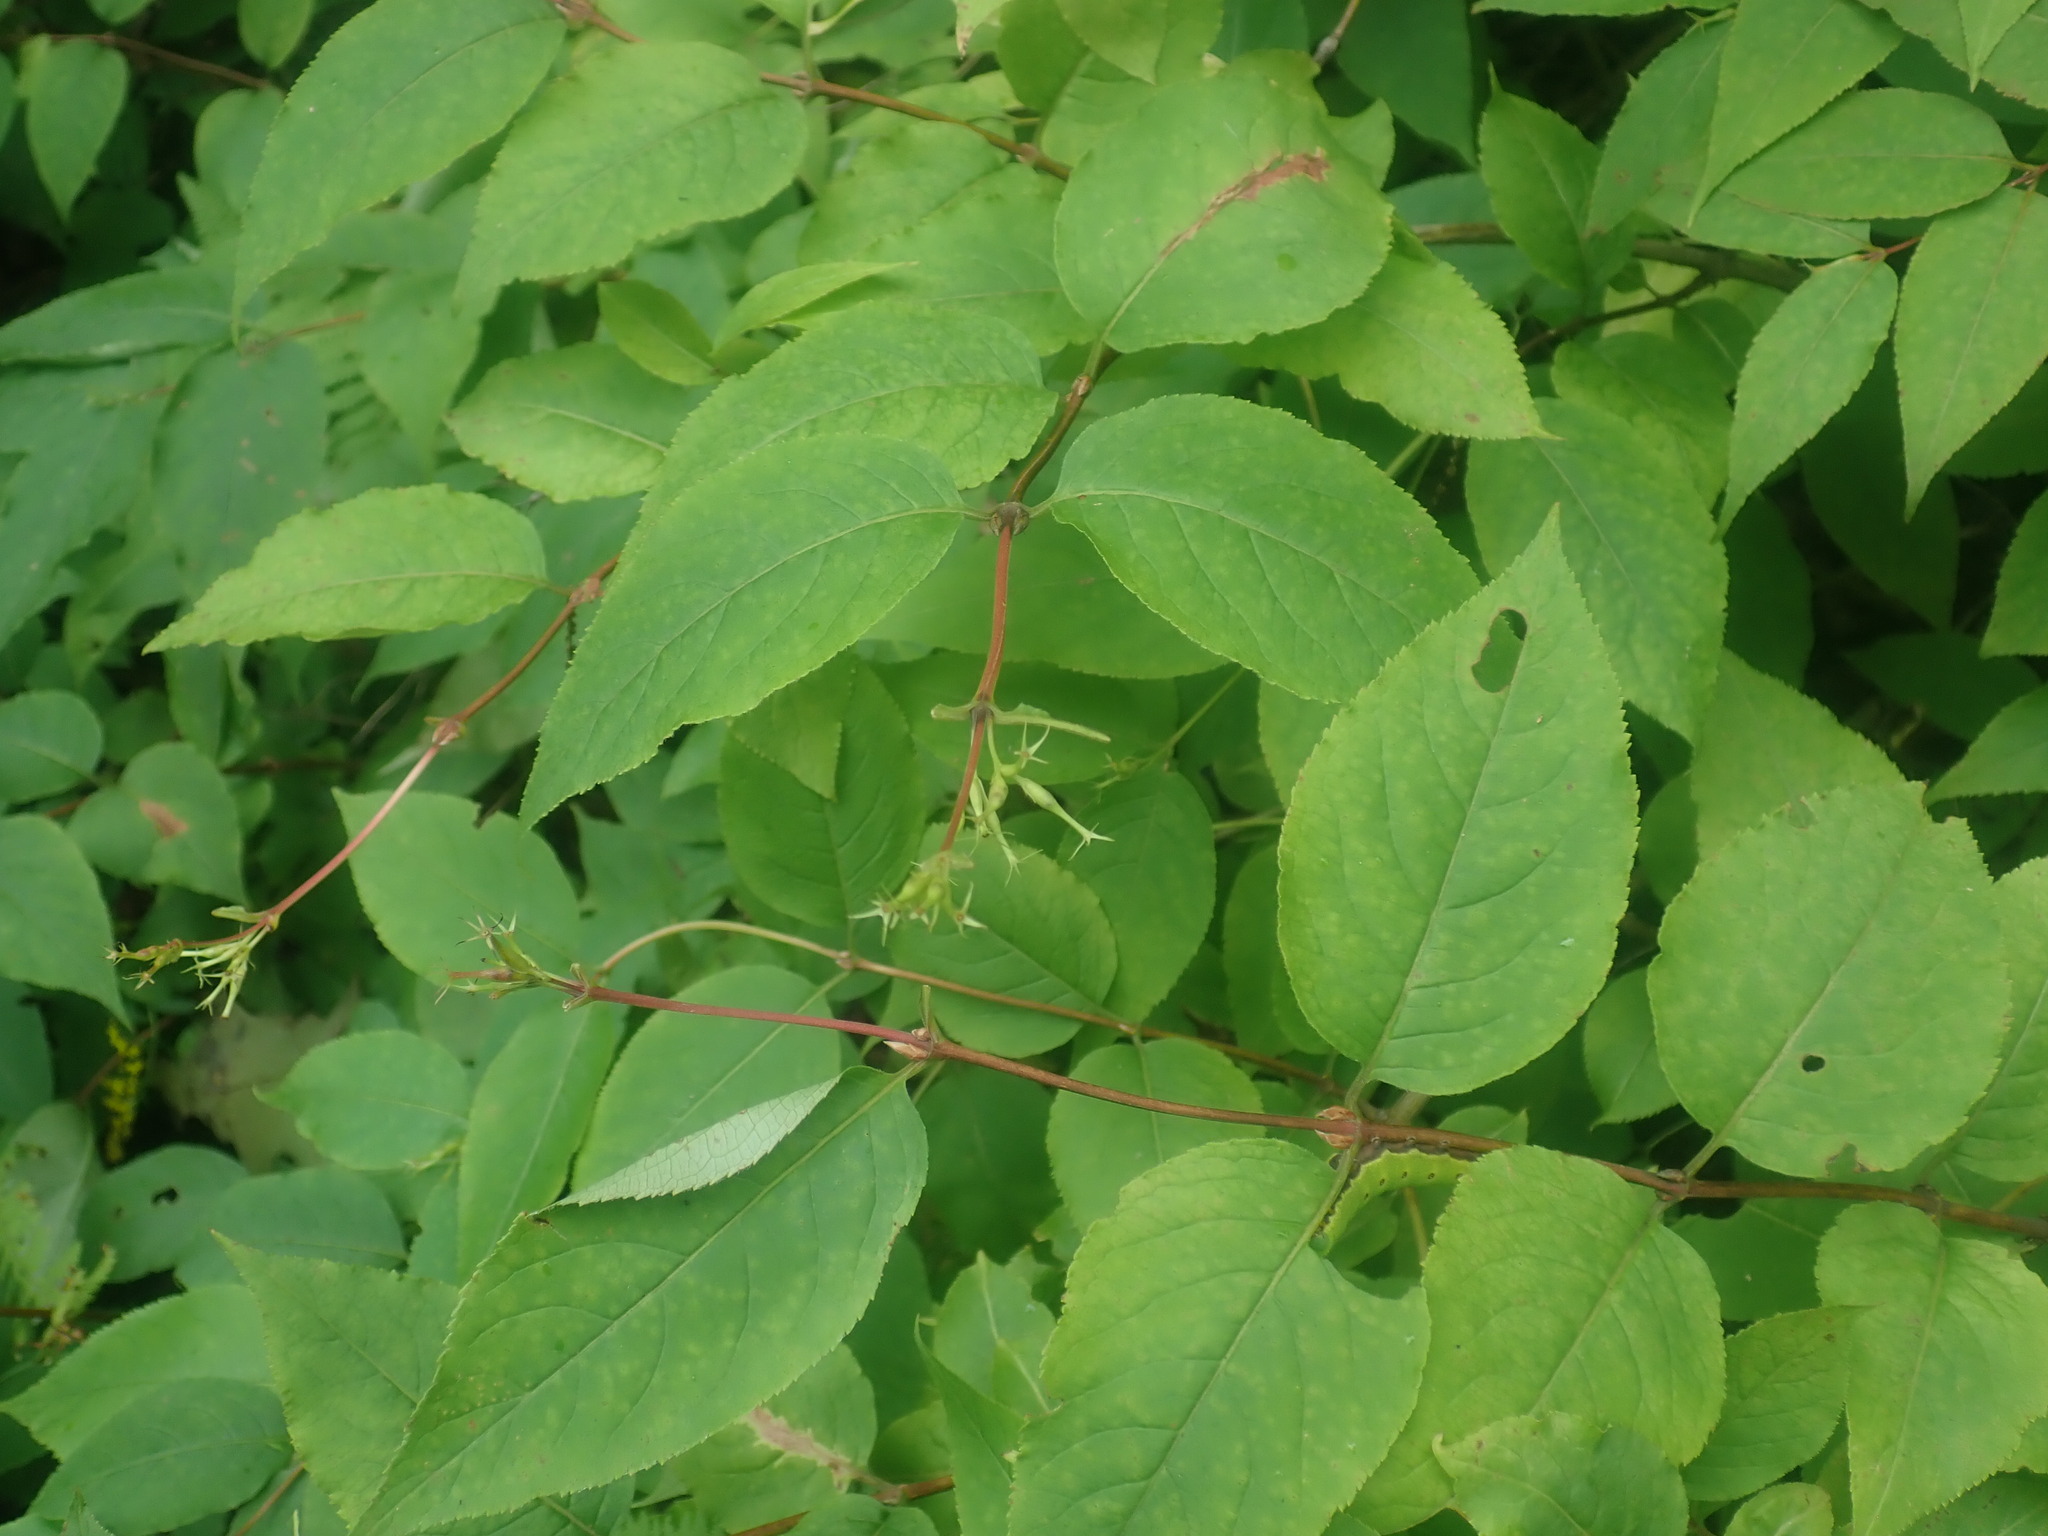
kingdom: Plantae
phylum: Tracheophyta
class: Magnoliopsida
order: Dipsacales
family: Caprifoliaceae
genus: Diervilla
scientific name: Diervilla lonicera
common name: Bush-honeysuckle
